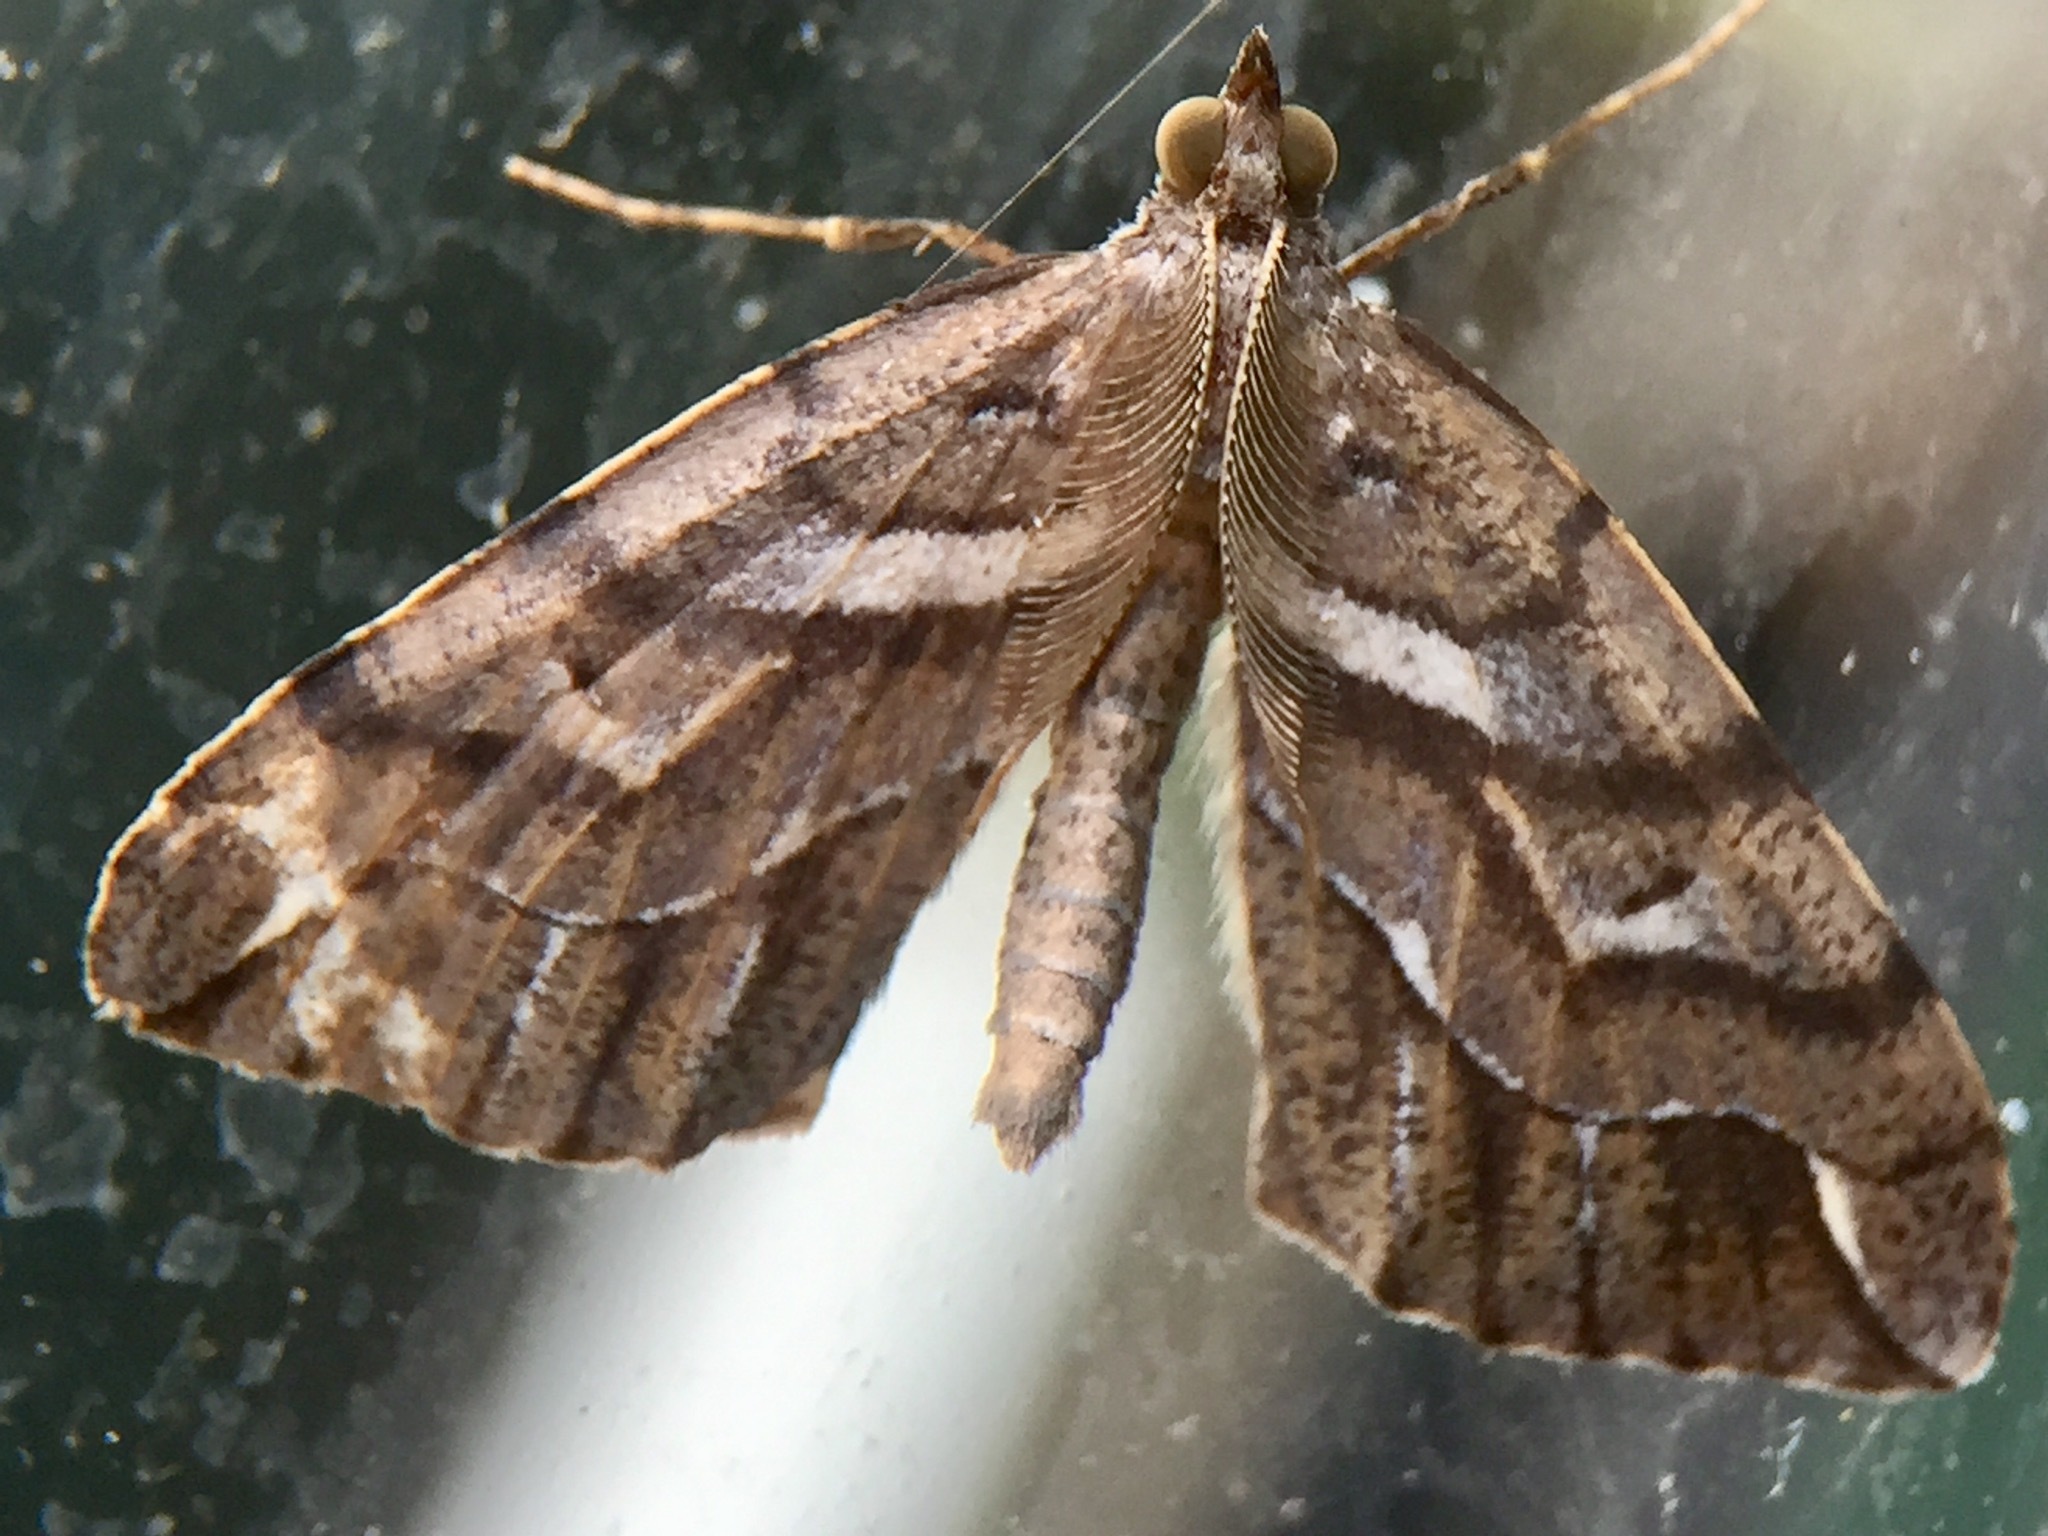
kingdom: Animalia
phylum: Arthropoda
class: Insecta
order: Lepidoptera
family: Geometridae
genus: Chalastra
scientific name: Chalastra aristarcha
